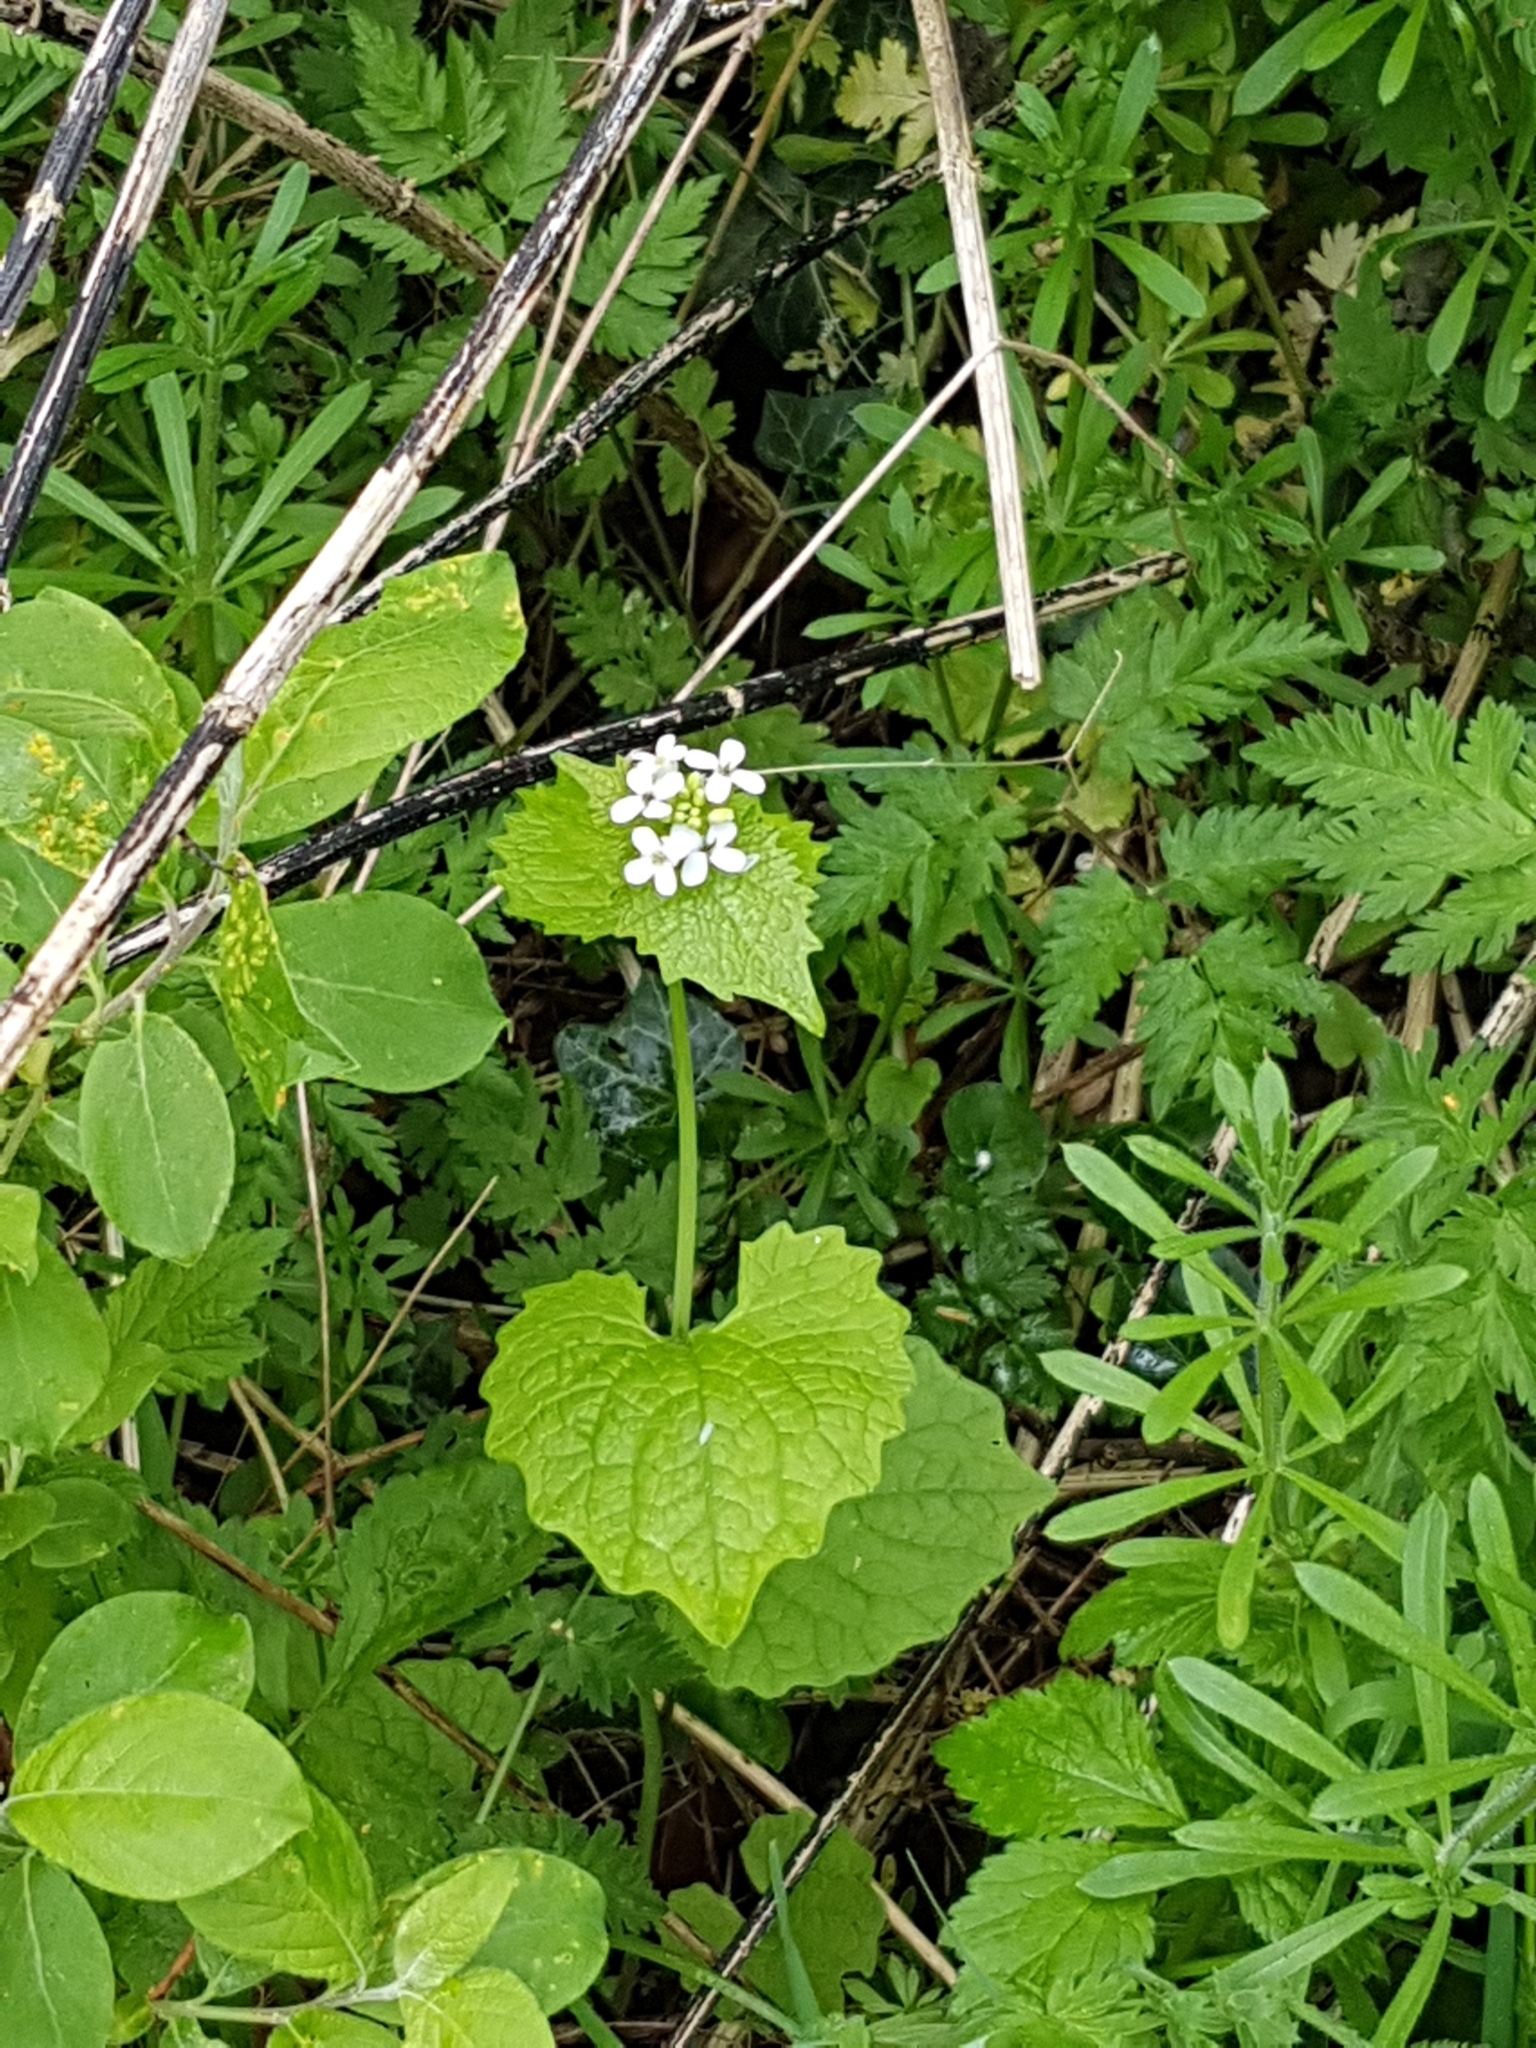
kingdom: Plantae
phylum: Tracheophyta
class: Magnoliopsida
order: Brassicales
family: Brassicaceae
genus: Alliaria
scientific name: Alliaria petiolata
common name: Garlic mustard
